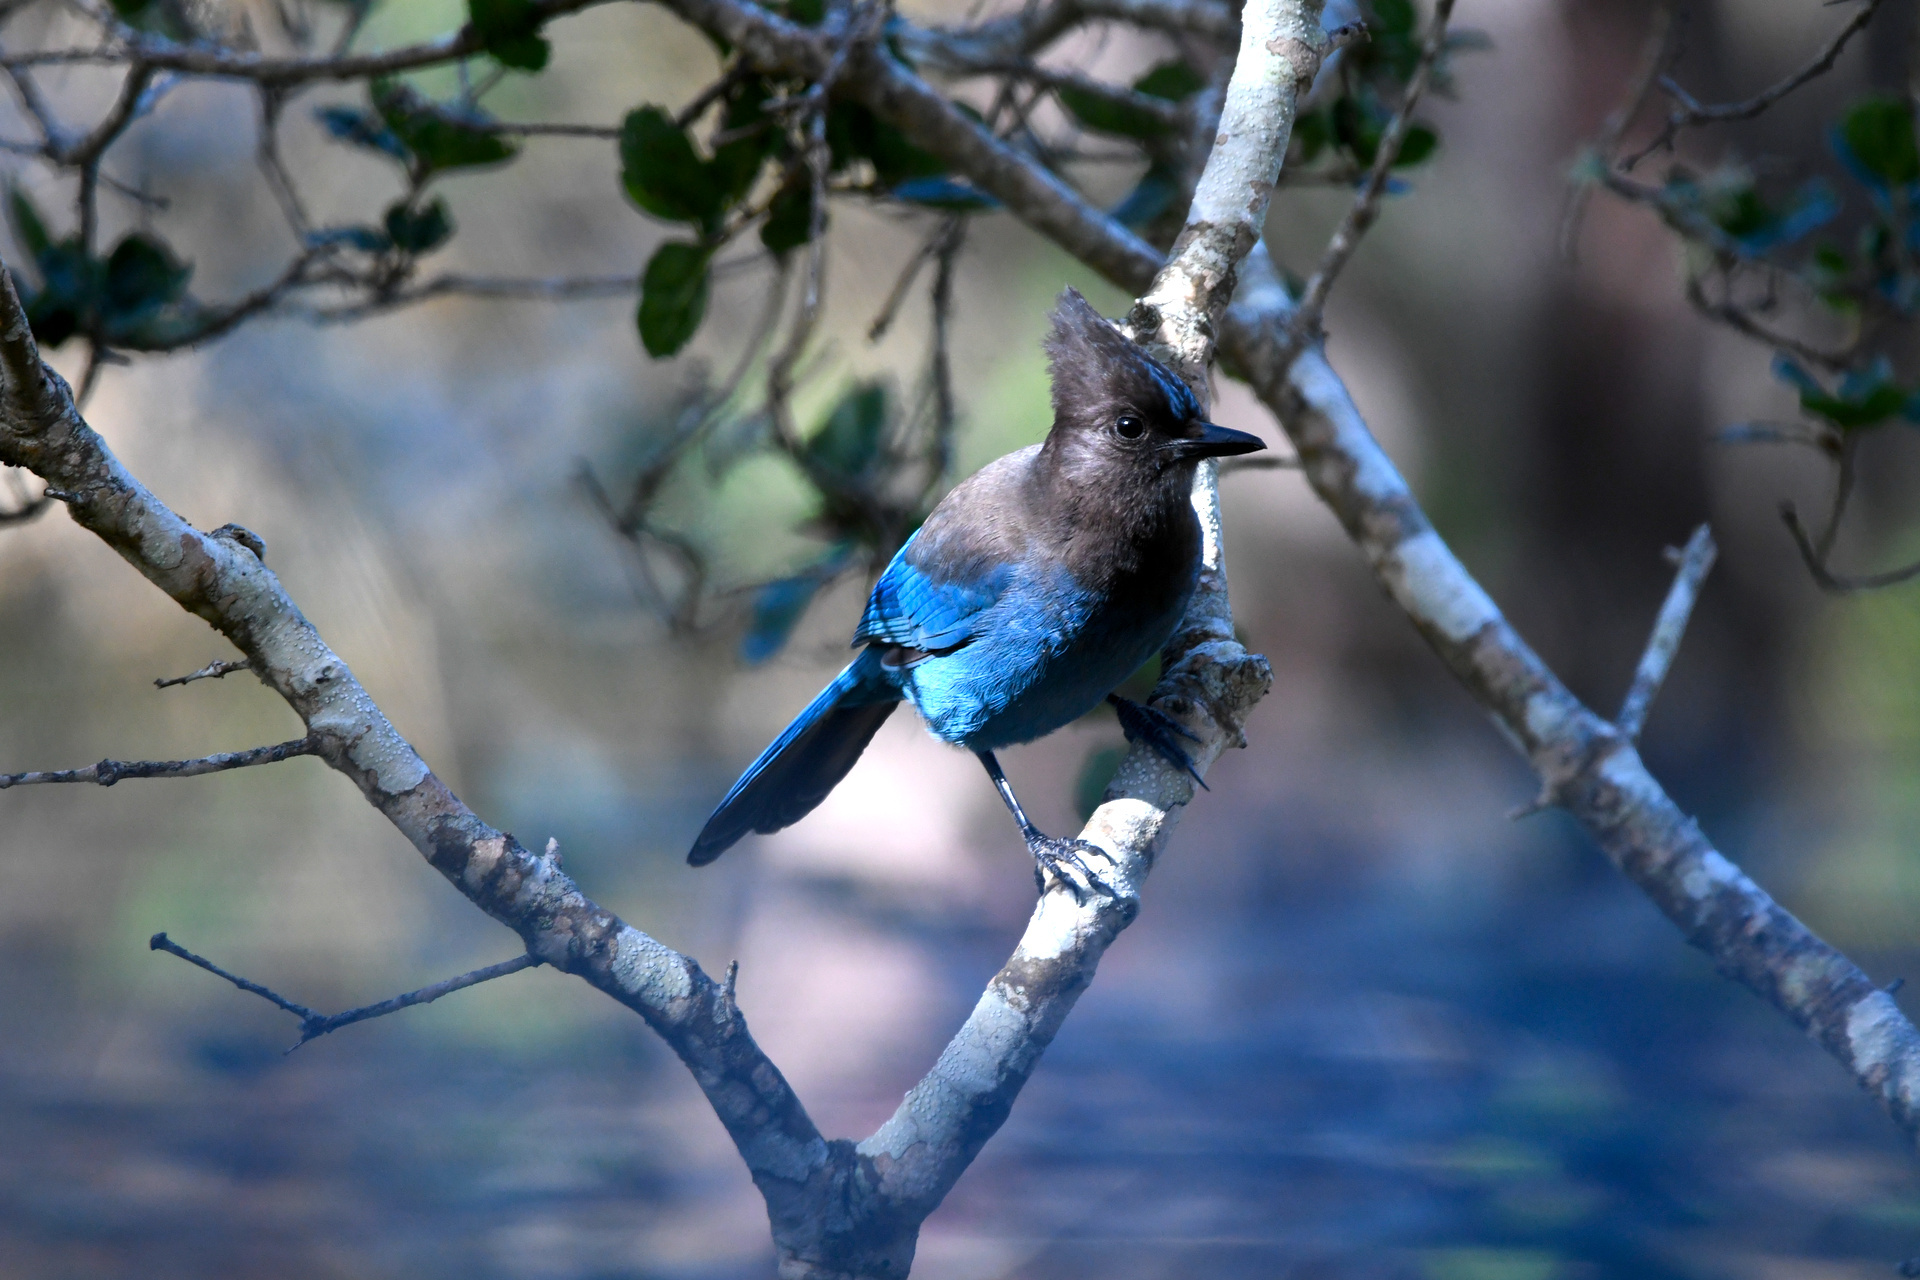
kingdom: Animalia
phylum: Chordata
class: Aves
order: Passeriformes
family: Corvidae
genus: Cyanocitta
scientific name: Cyanocitta stelleri
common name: Steller's jay
